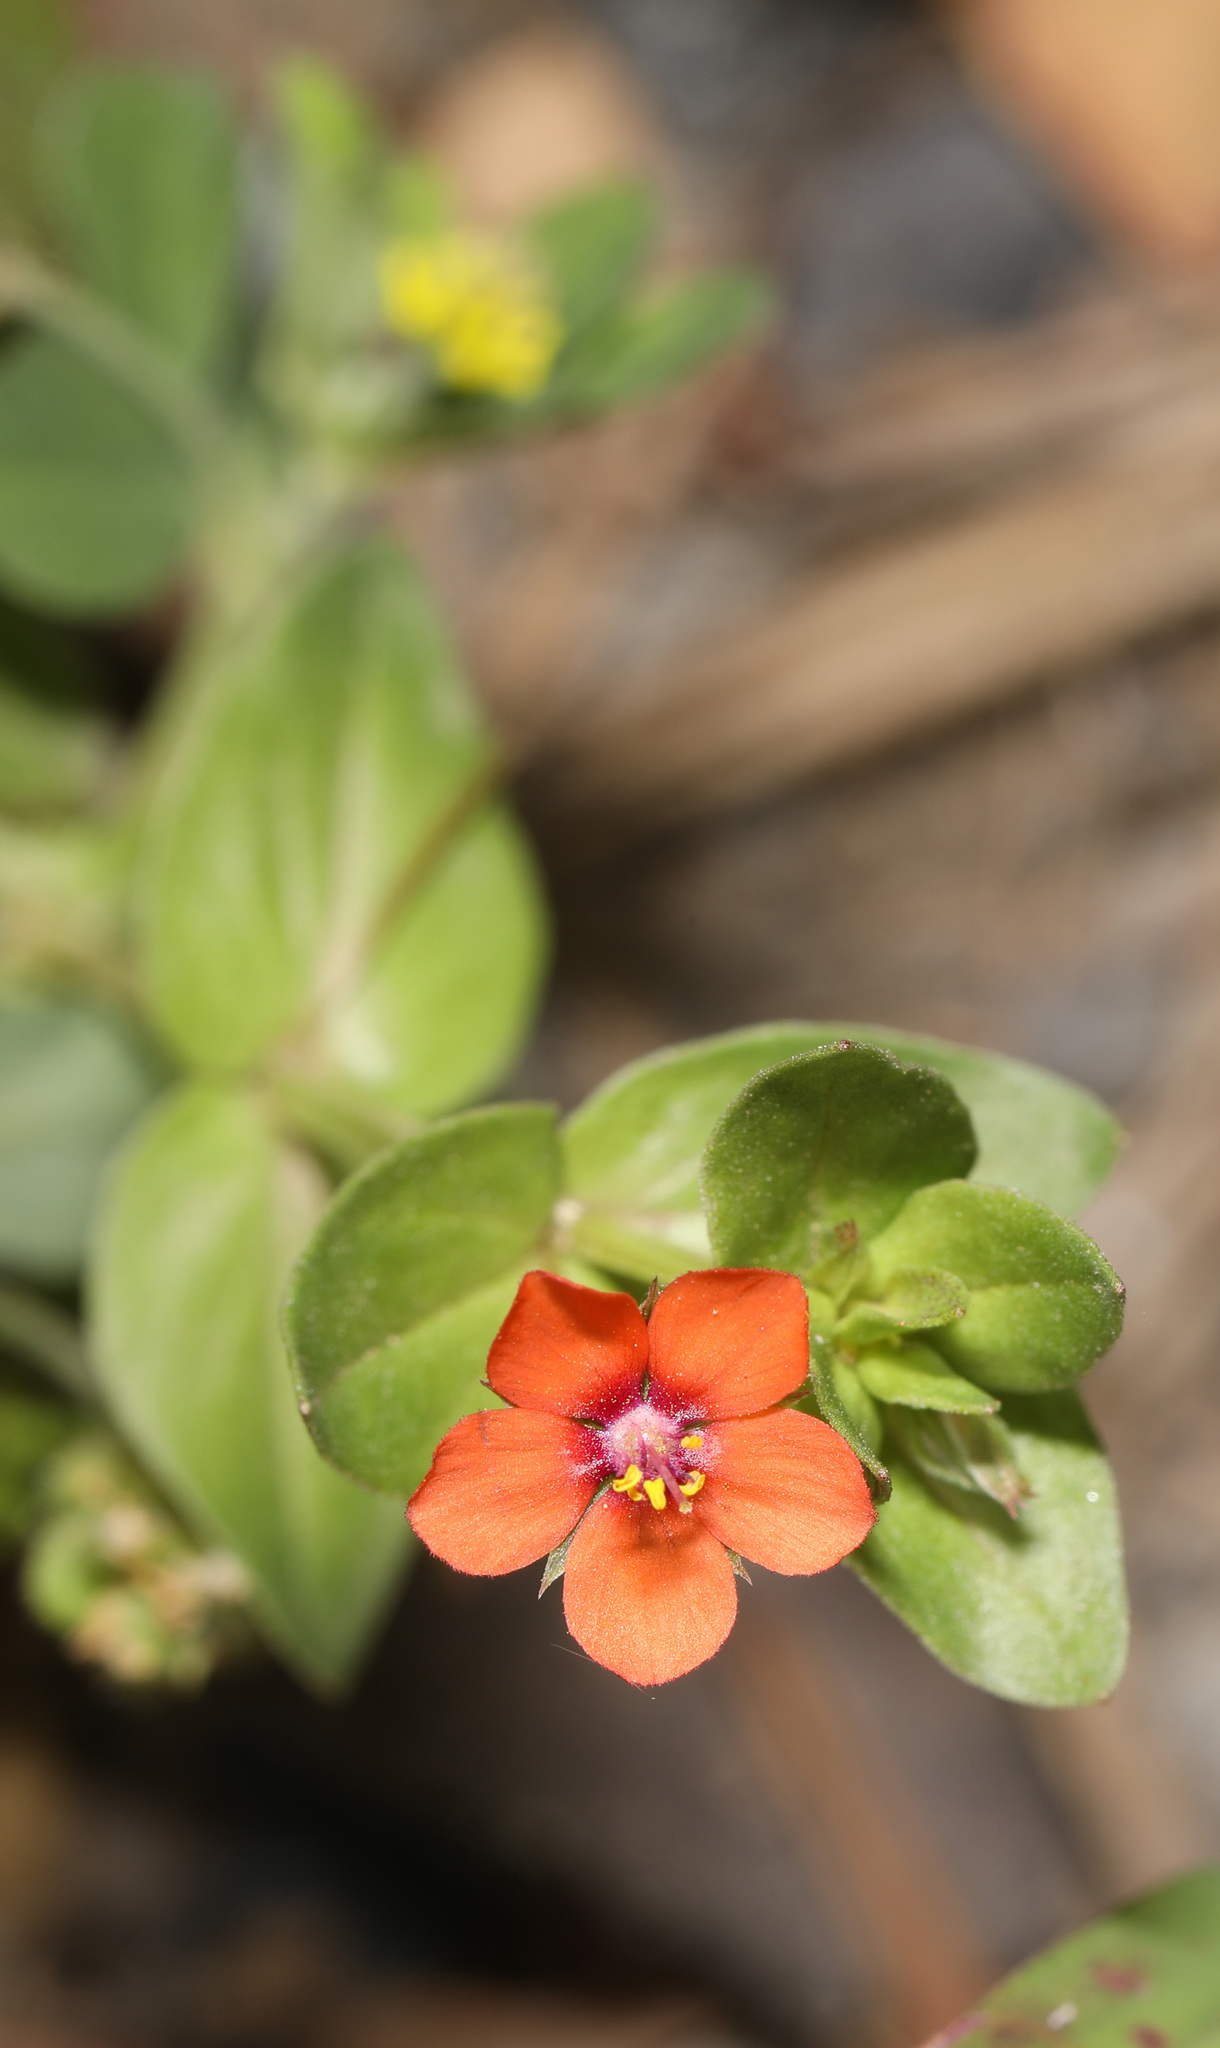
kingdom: Plantae
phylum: Tracheophyta
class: Magnoliopsida
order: Ericales
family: Primulaceae
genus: Lysimachia
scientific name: Lysimachia arvensis
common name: Scarlet pimpernel
